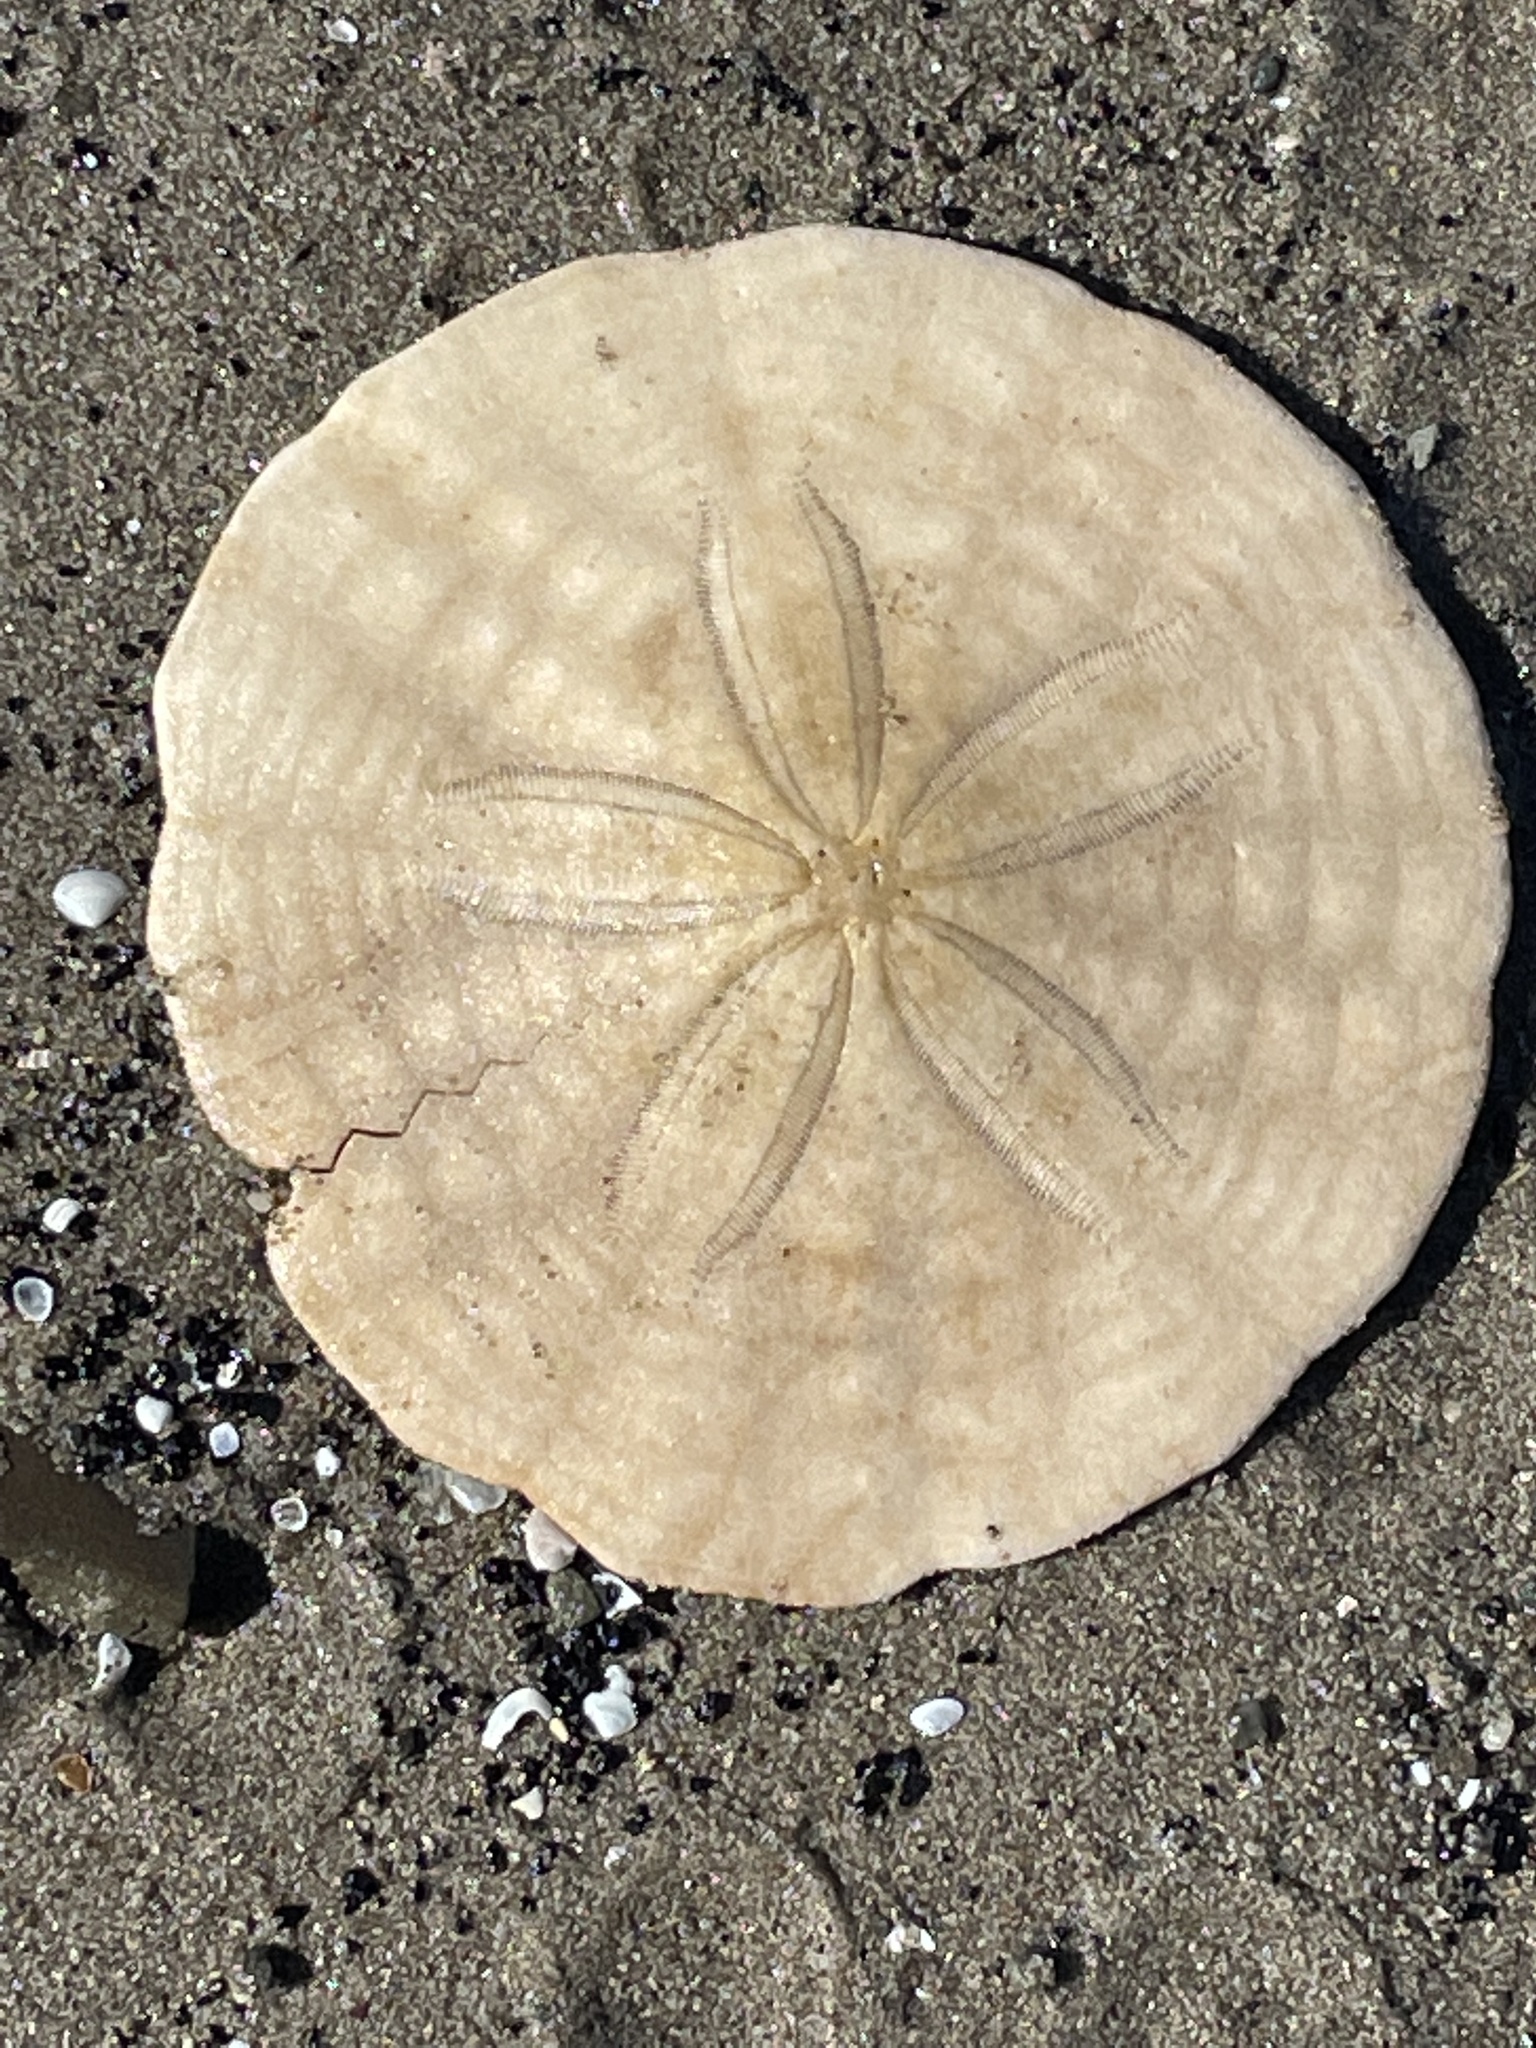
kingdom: Animalia
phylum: Echinodermata
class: Echinoidea
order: Echinolampadacea
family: Echinarachniidae
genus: Echinarachnius
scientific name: Echinarachnius parma
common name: Common sand dollar
